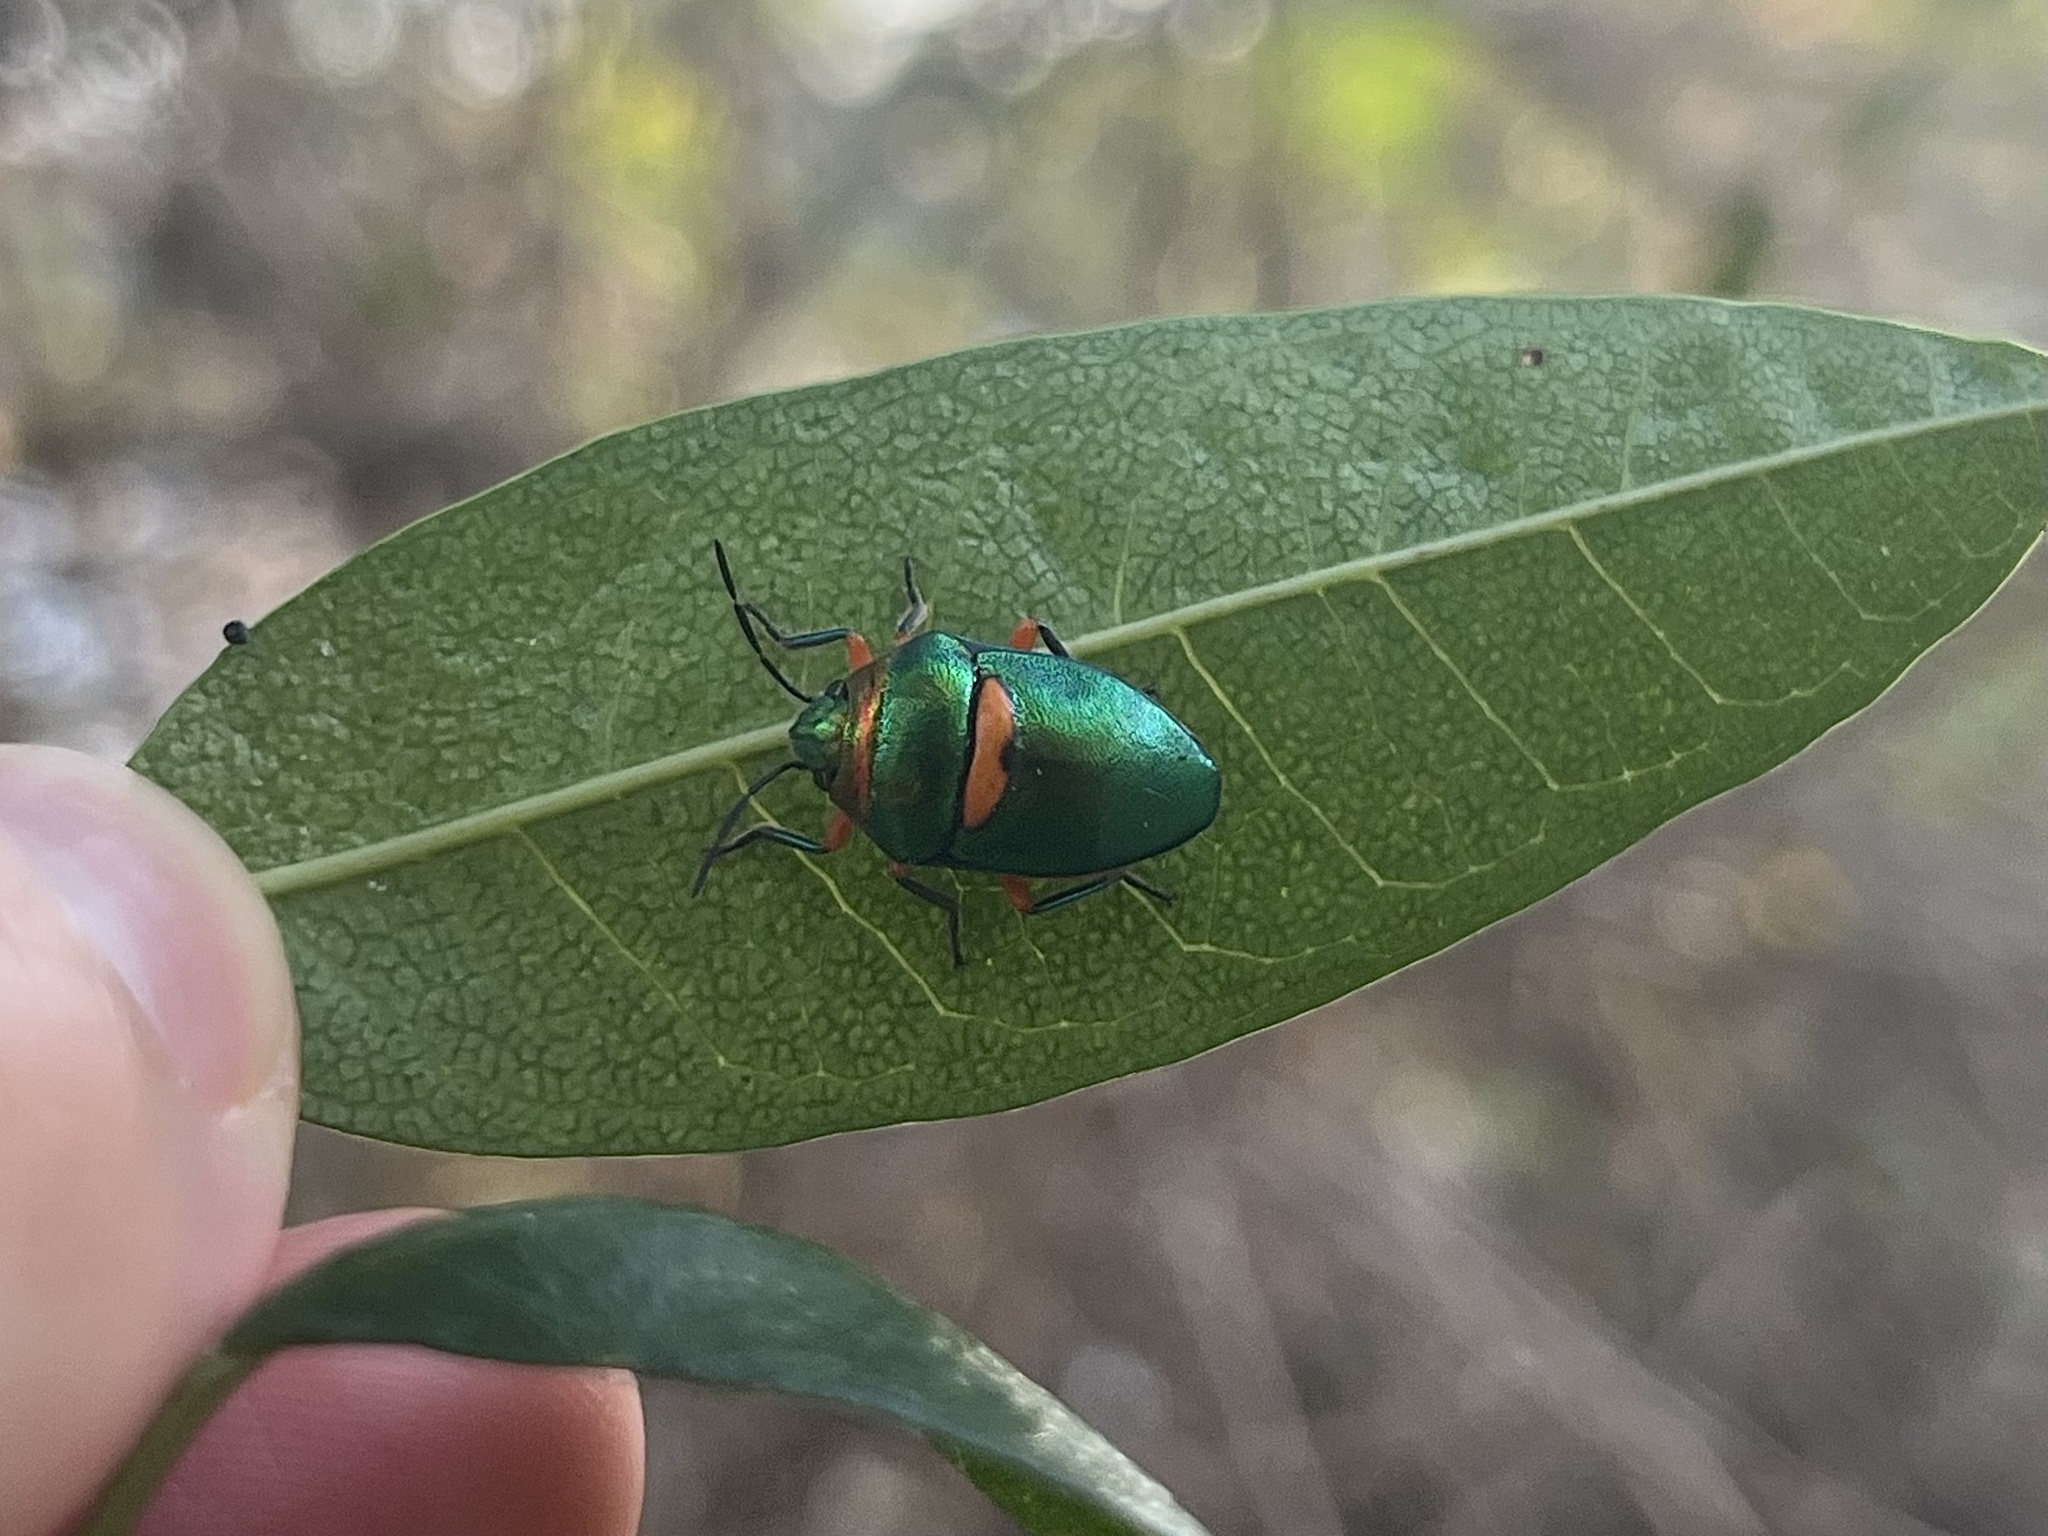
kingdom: Animalia
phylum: Arthropoda
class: Insecta
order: Hemiptera
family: Scutelleridae
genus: Lampromicra
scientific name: Lampromicra senator
